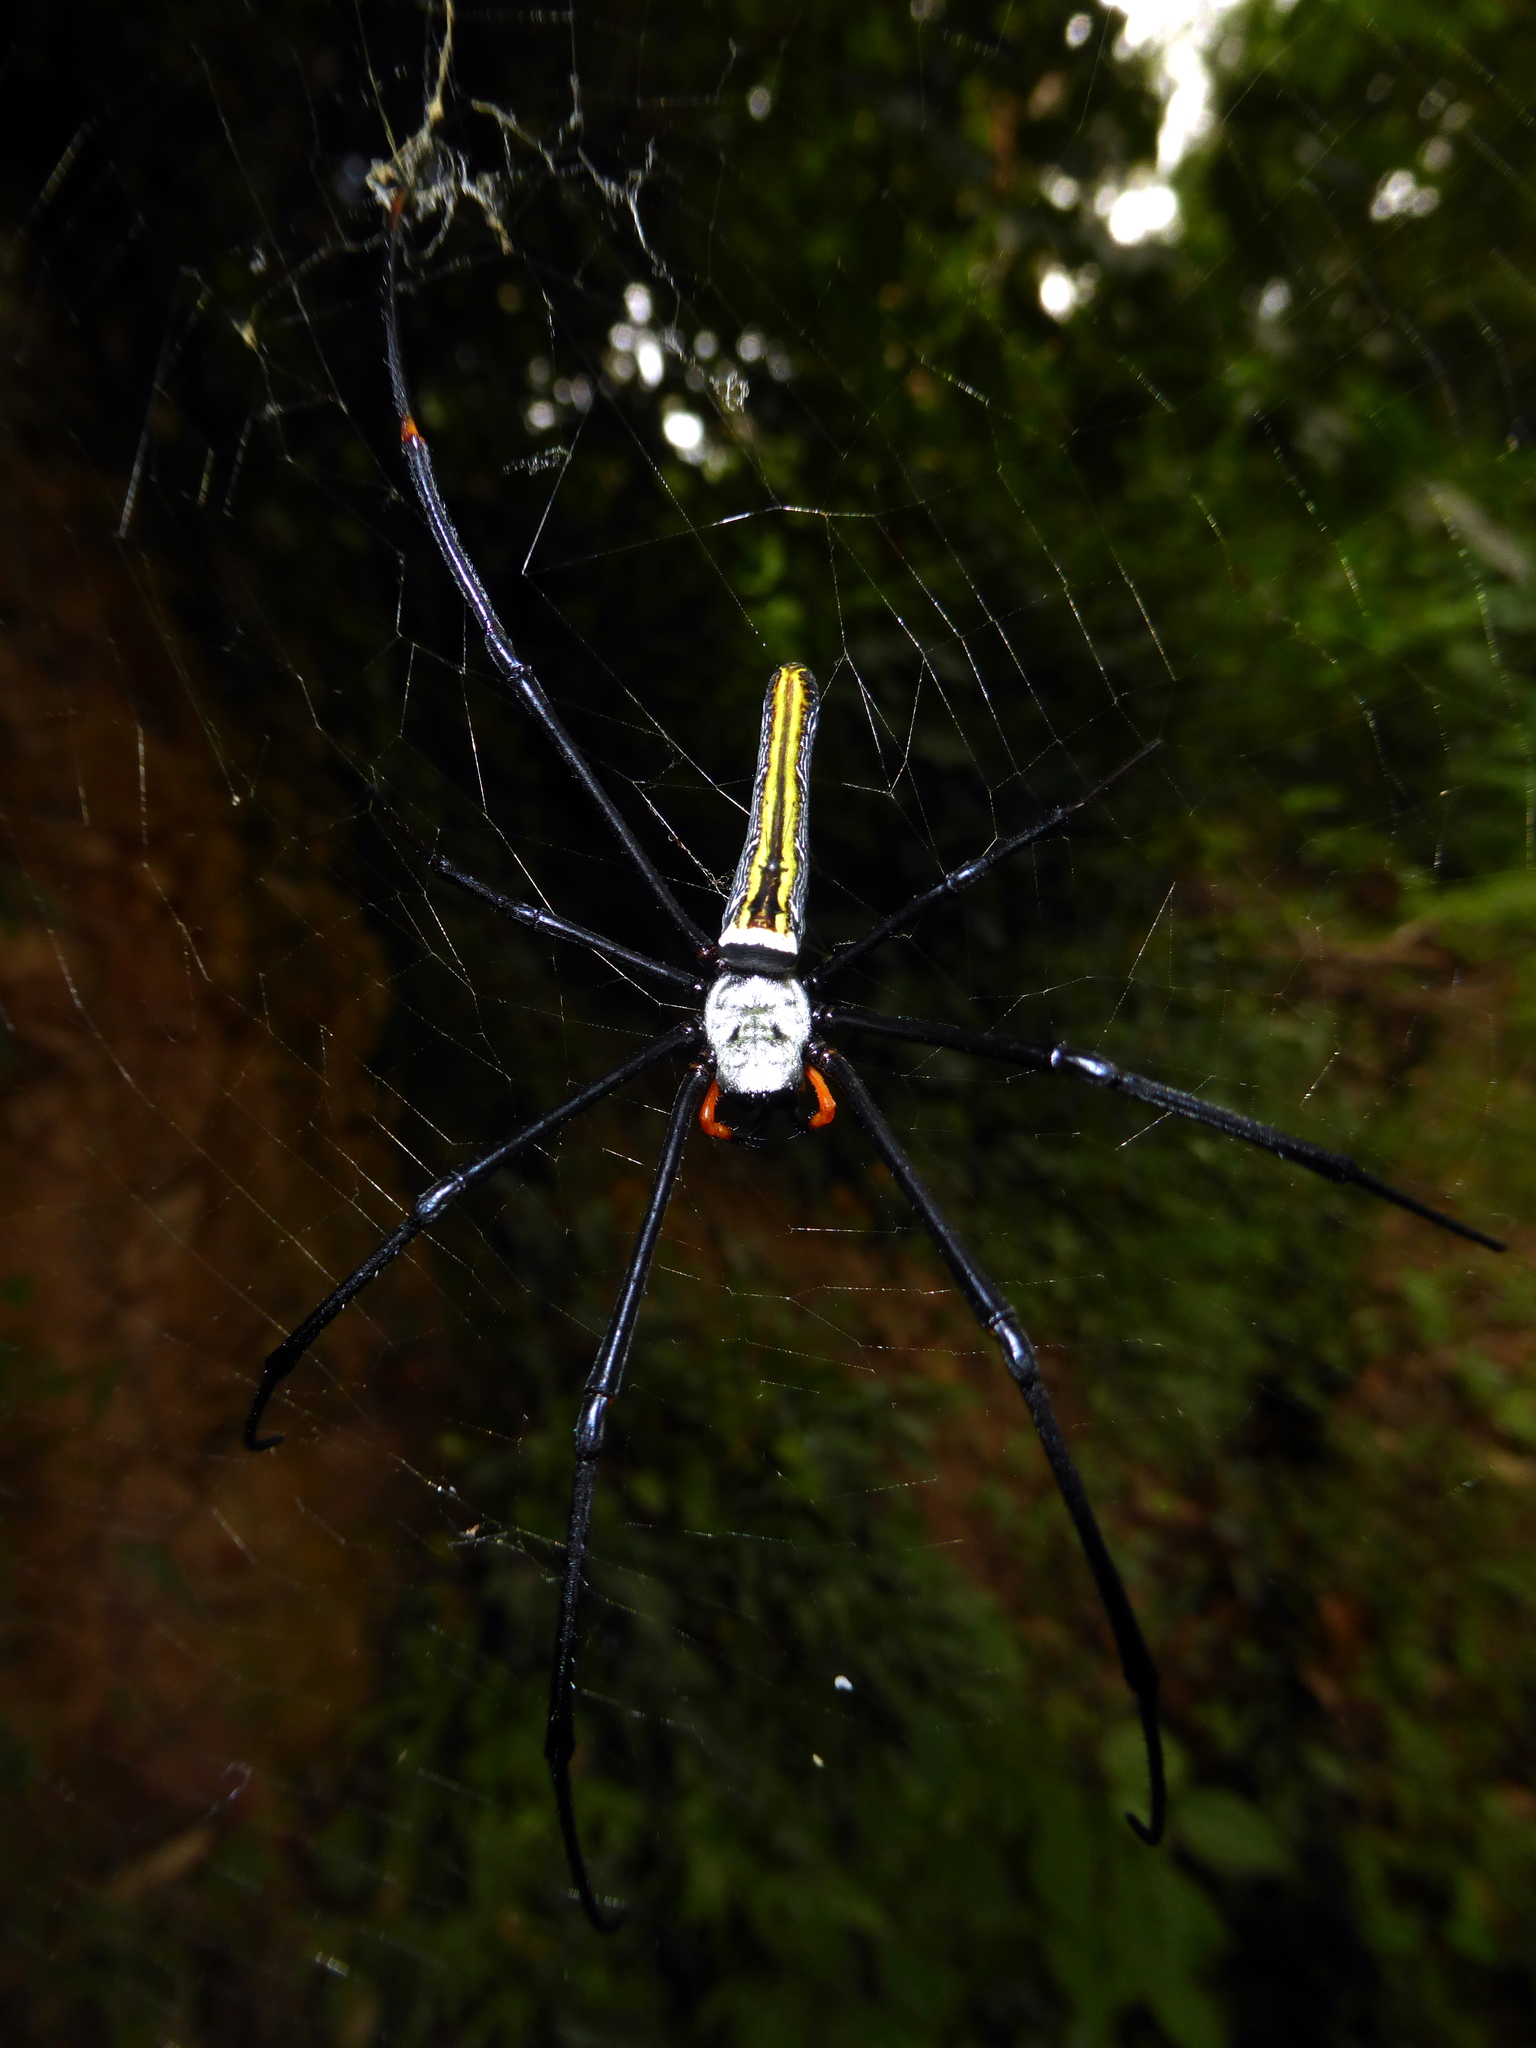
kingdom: Animalia
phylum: Arthropoda
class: Arachnida
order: Araneae
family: Araneidae
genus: Nephila
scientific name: Nephila pilipes
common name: Giant golden orb weaver
